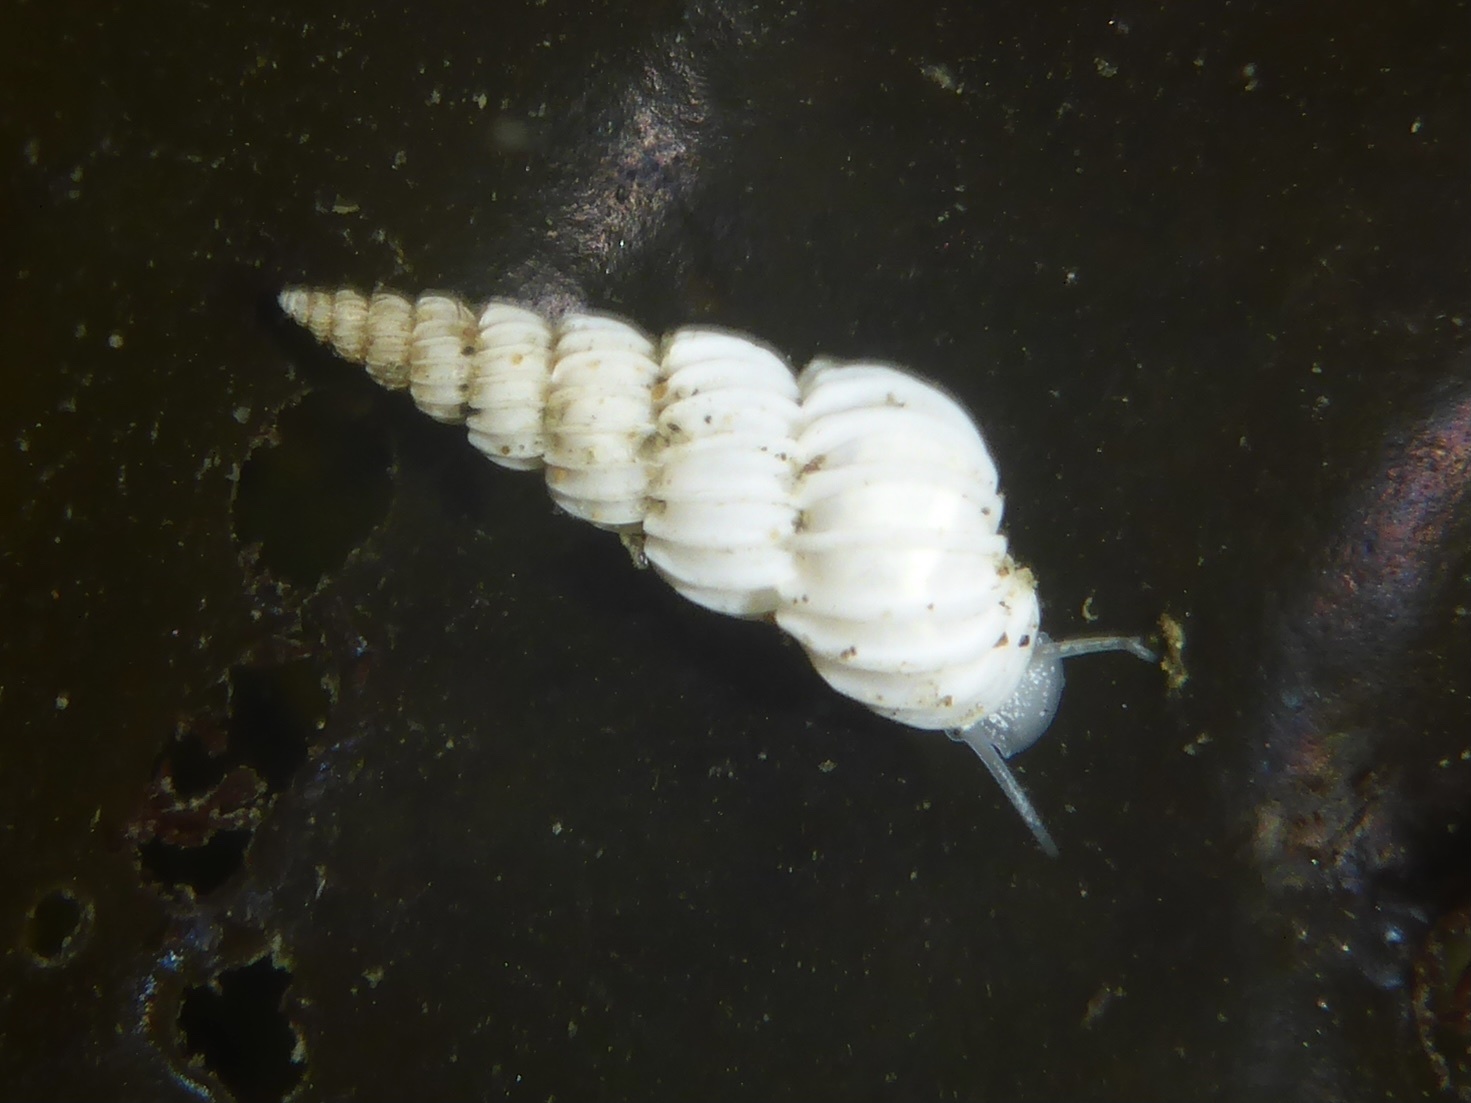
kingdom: Animalia
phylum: Mollusca
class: Gastropoda
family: Epitoniidae
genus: Epitonium
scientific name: Epitonium sawinae
